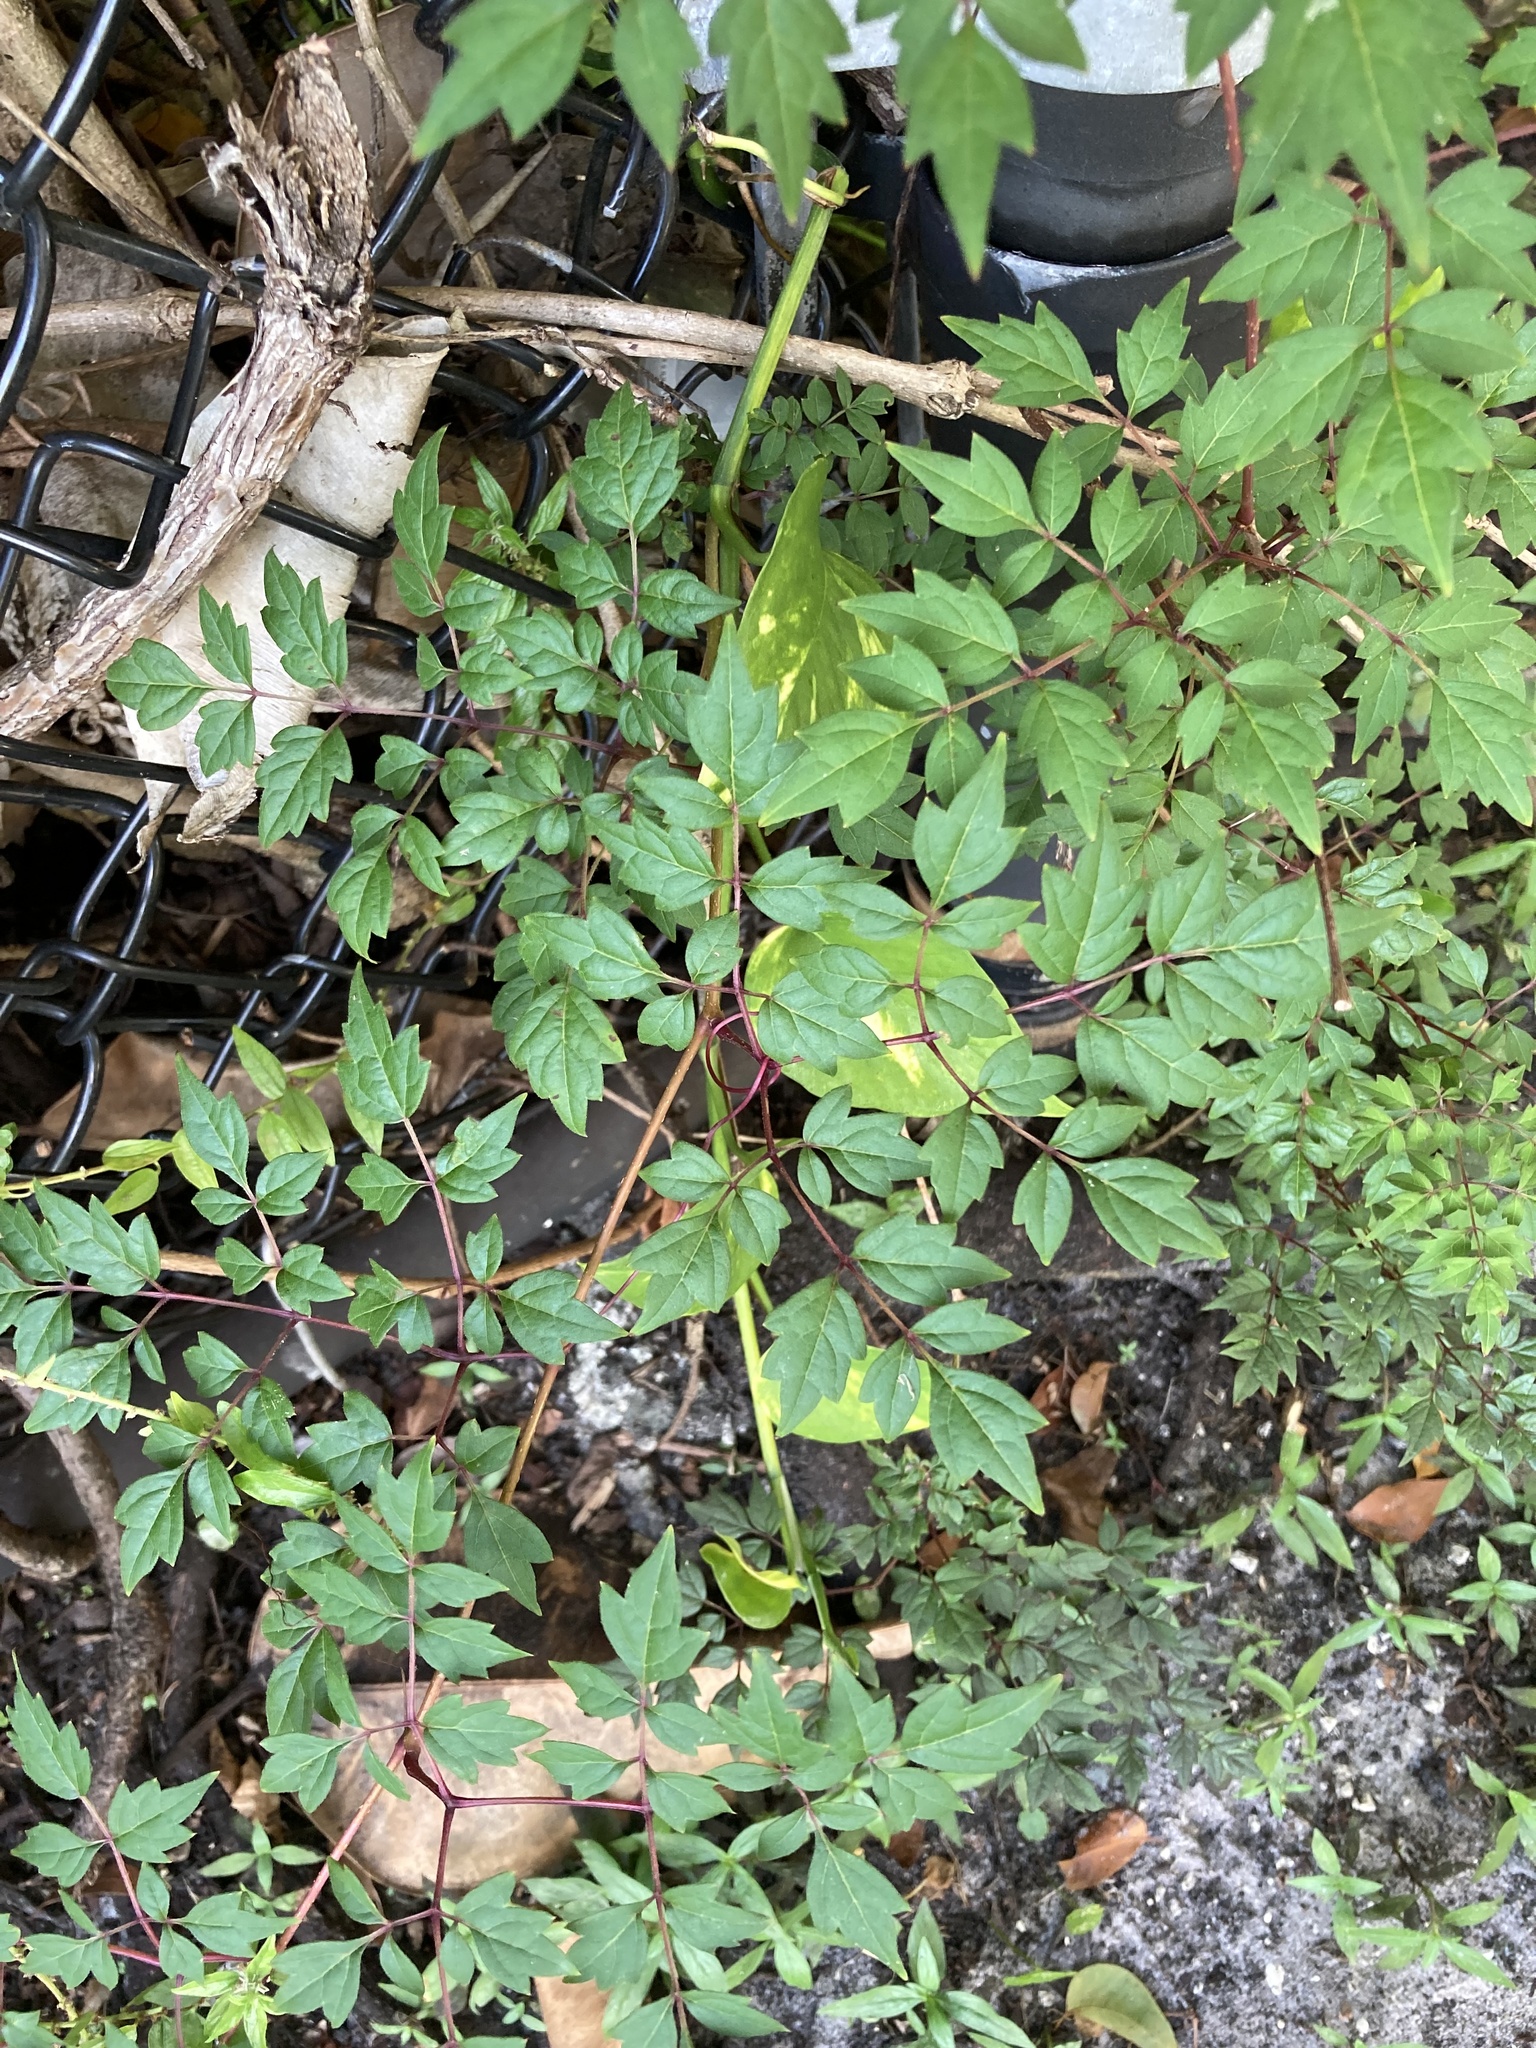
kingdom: Plantae
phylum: Tracheophyta
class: Magnoliopsida
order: Vitales
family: Vitaceae
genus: Nekemias
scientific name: Nekemias arborea
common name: Peppervine
